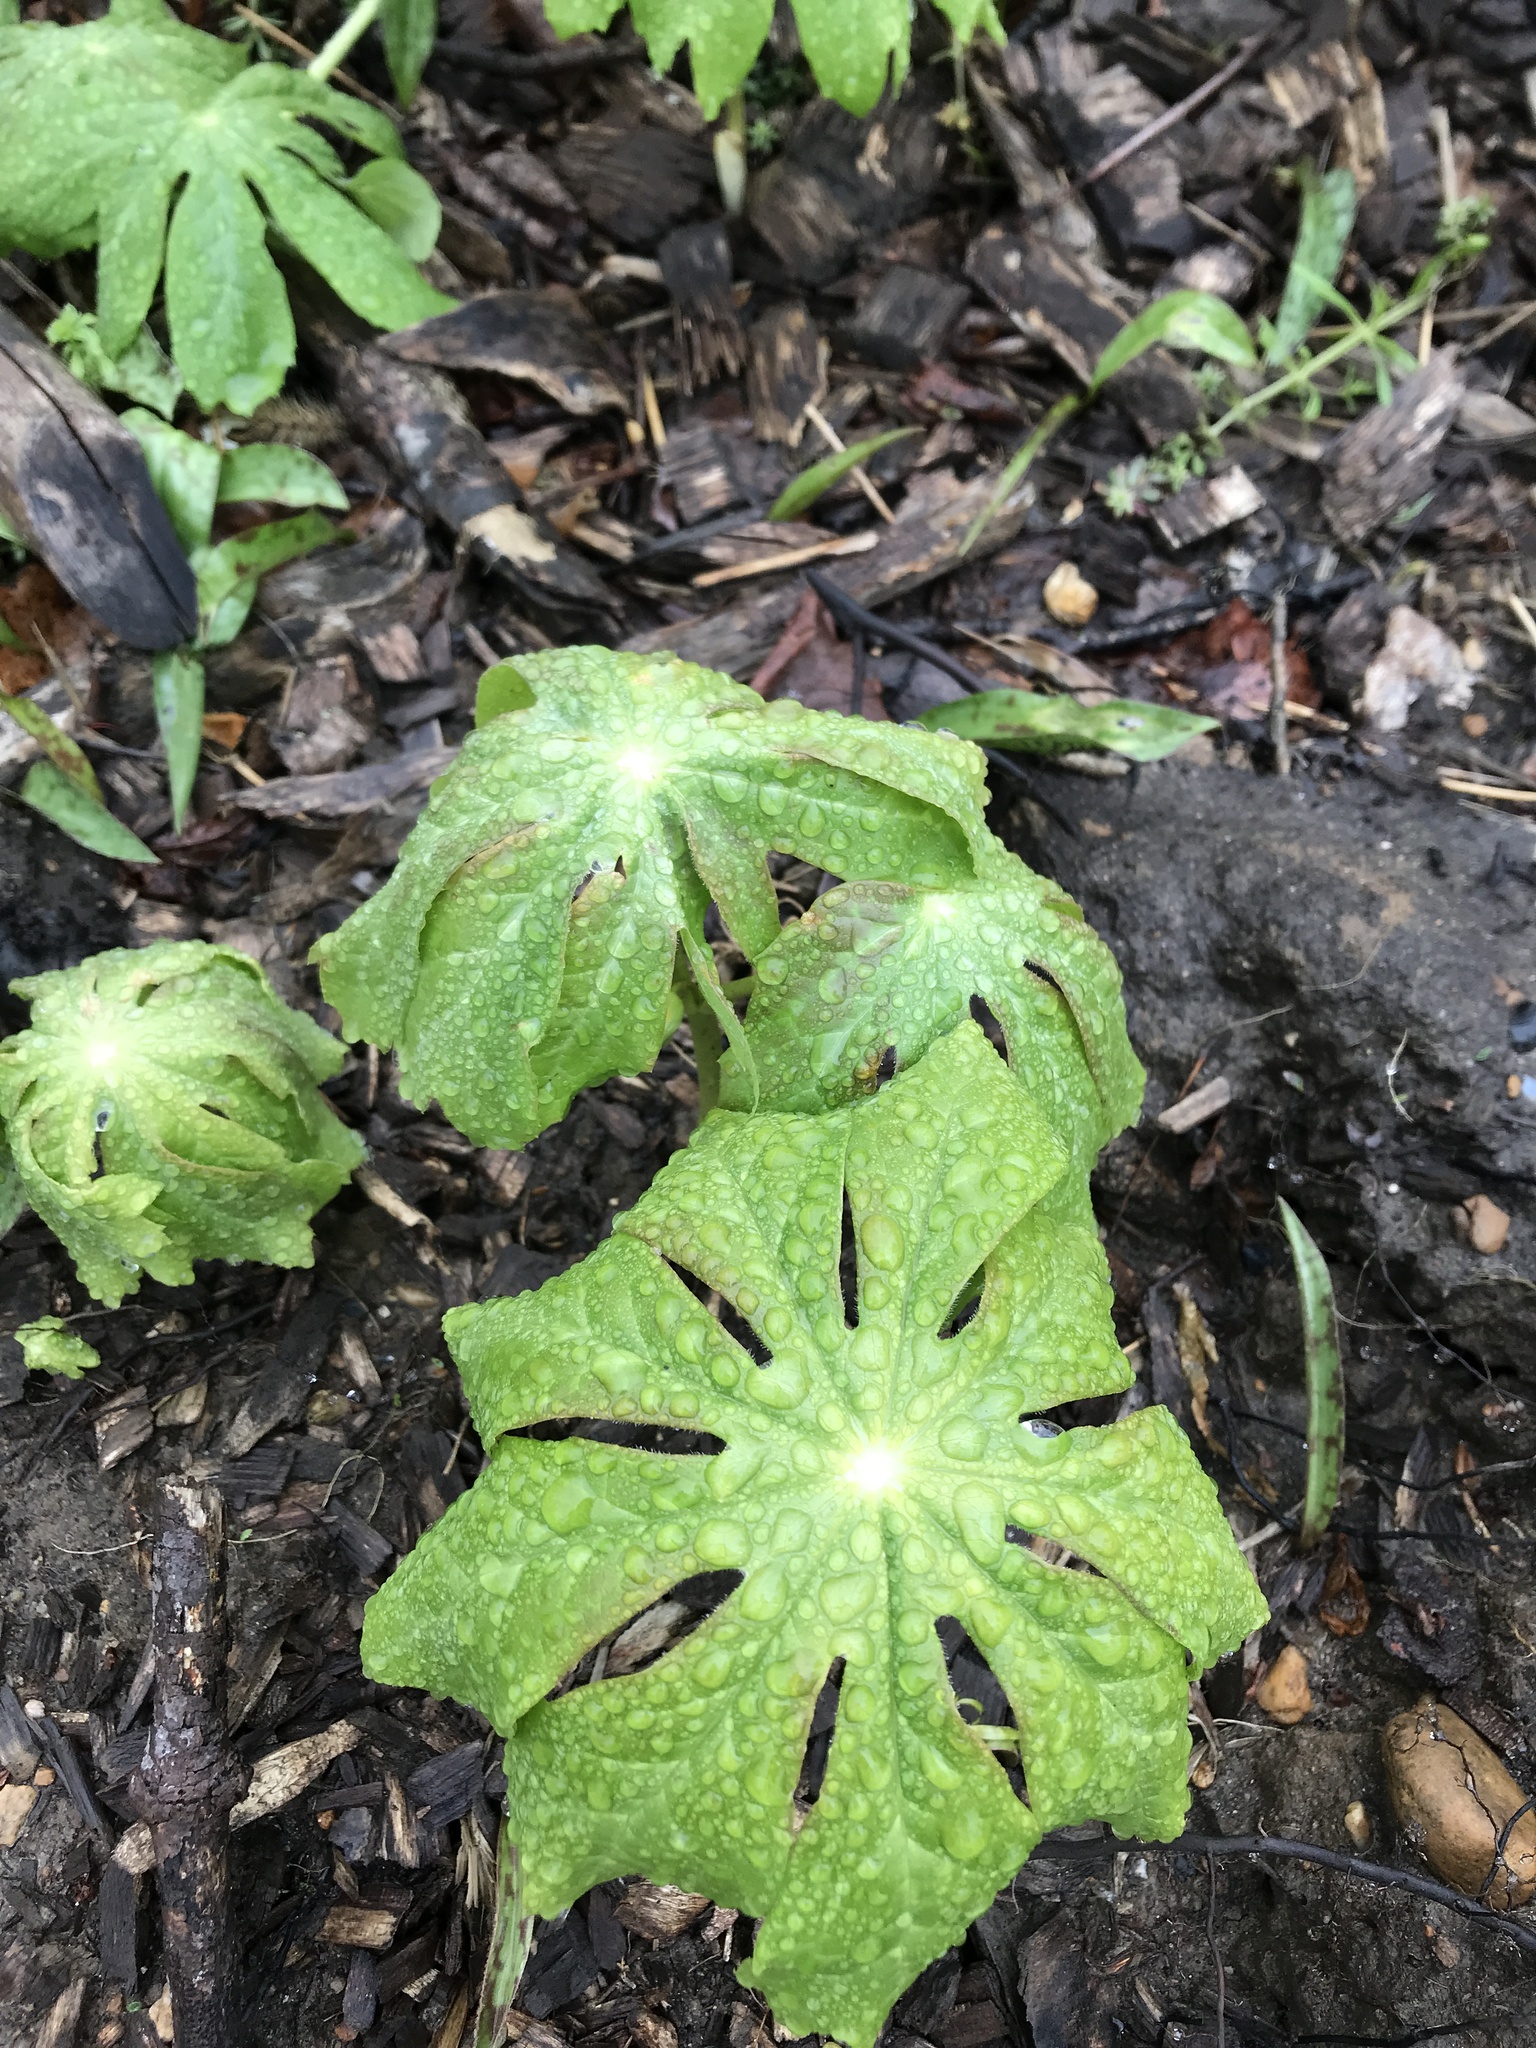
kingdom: Plantae
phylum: Tracheophyta
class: Magnoliopsida
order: Ranunculales
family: Berberidaceae
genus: Podophyllum
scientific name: Podophyllum peltatum
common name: Wild mandrake
